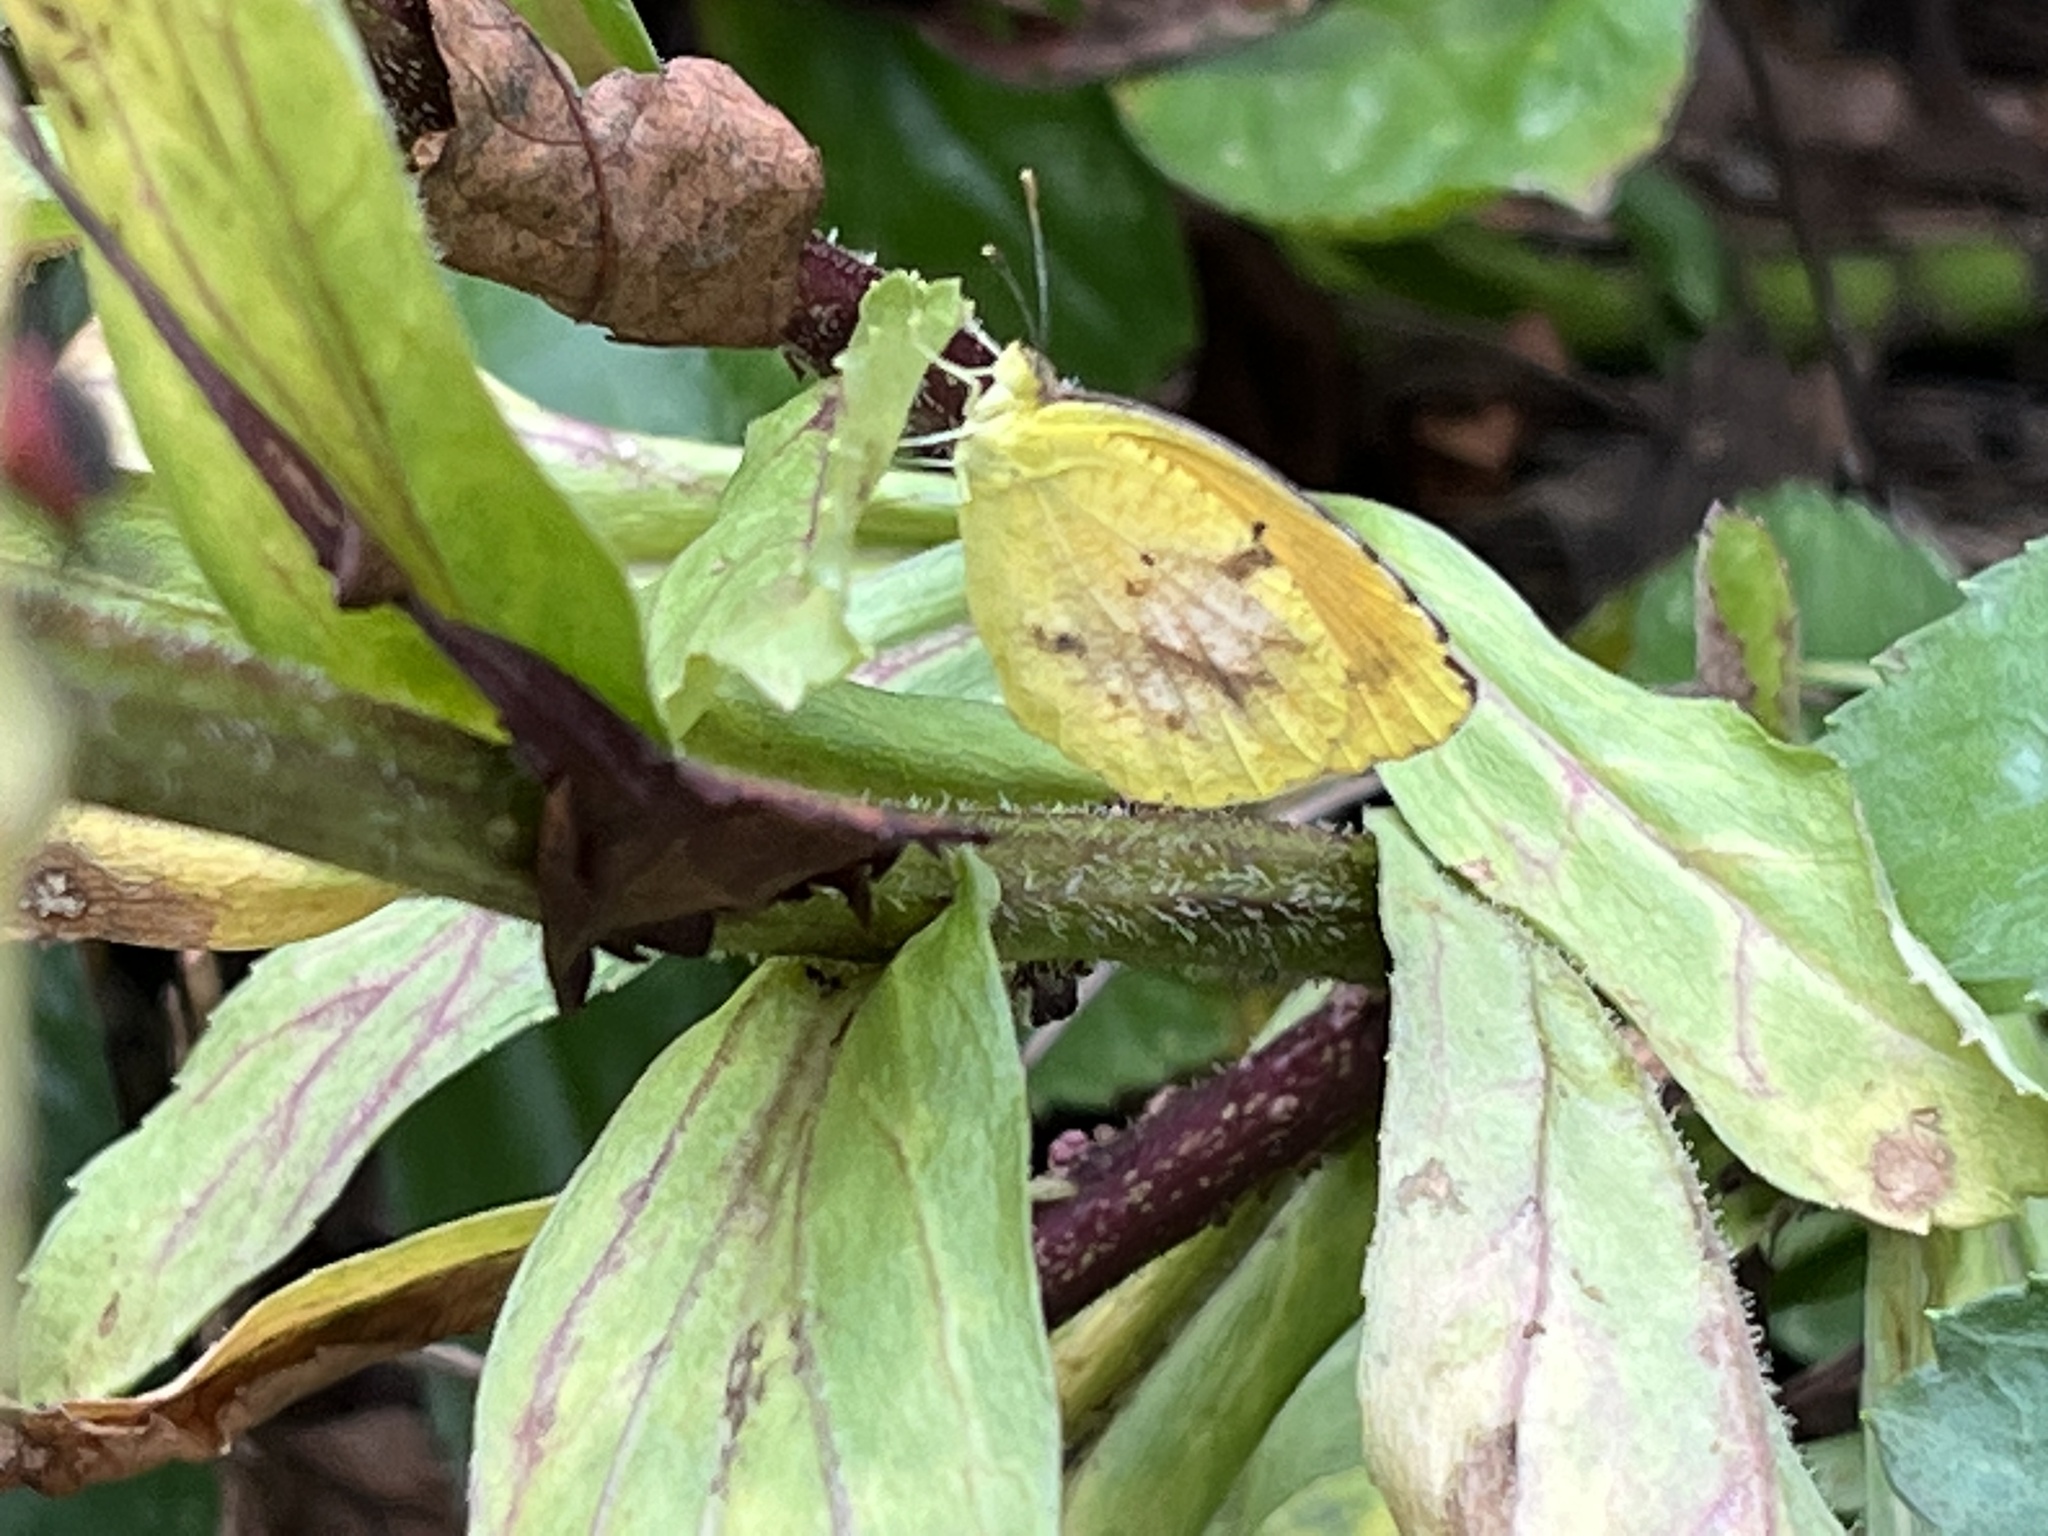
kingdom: Animalia
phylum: Arthropoda
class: Insecta
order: Lepidoptera
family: Pieridae
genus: Abaeis
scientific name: Abaeis nicippe
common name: Sleepy orange
